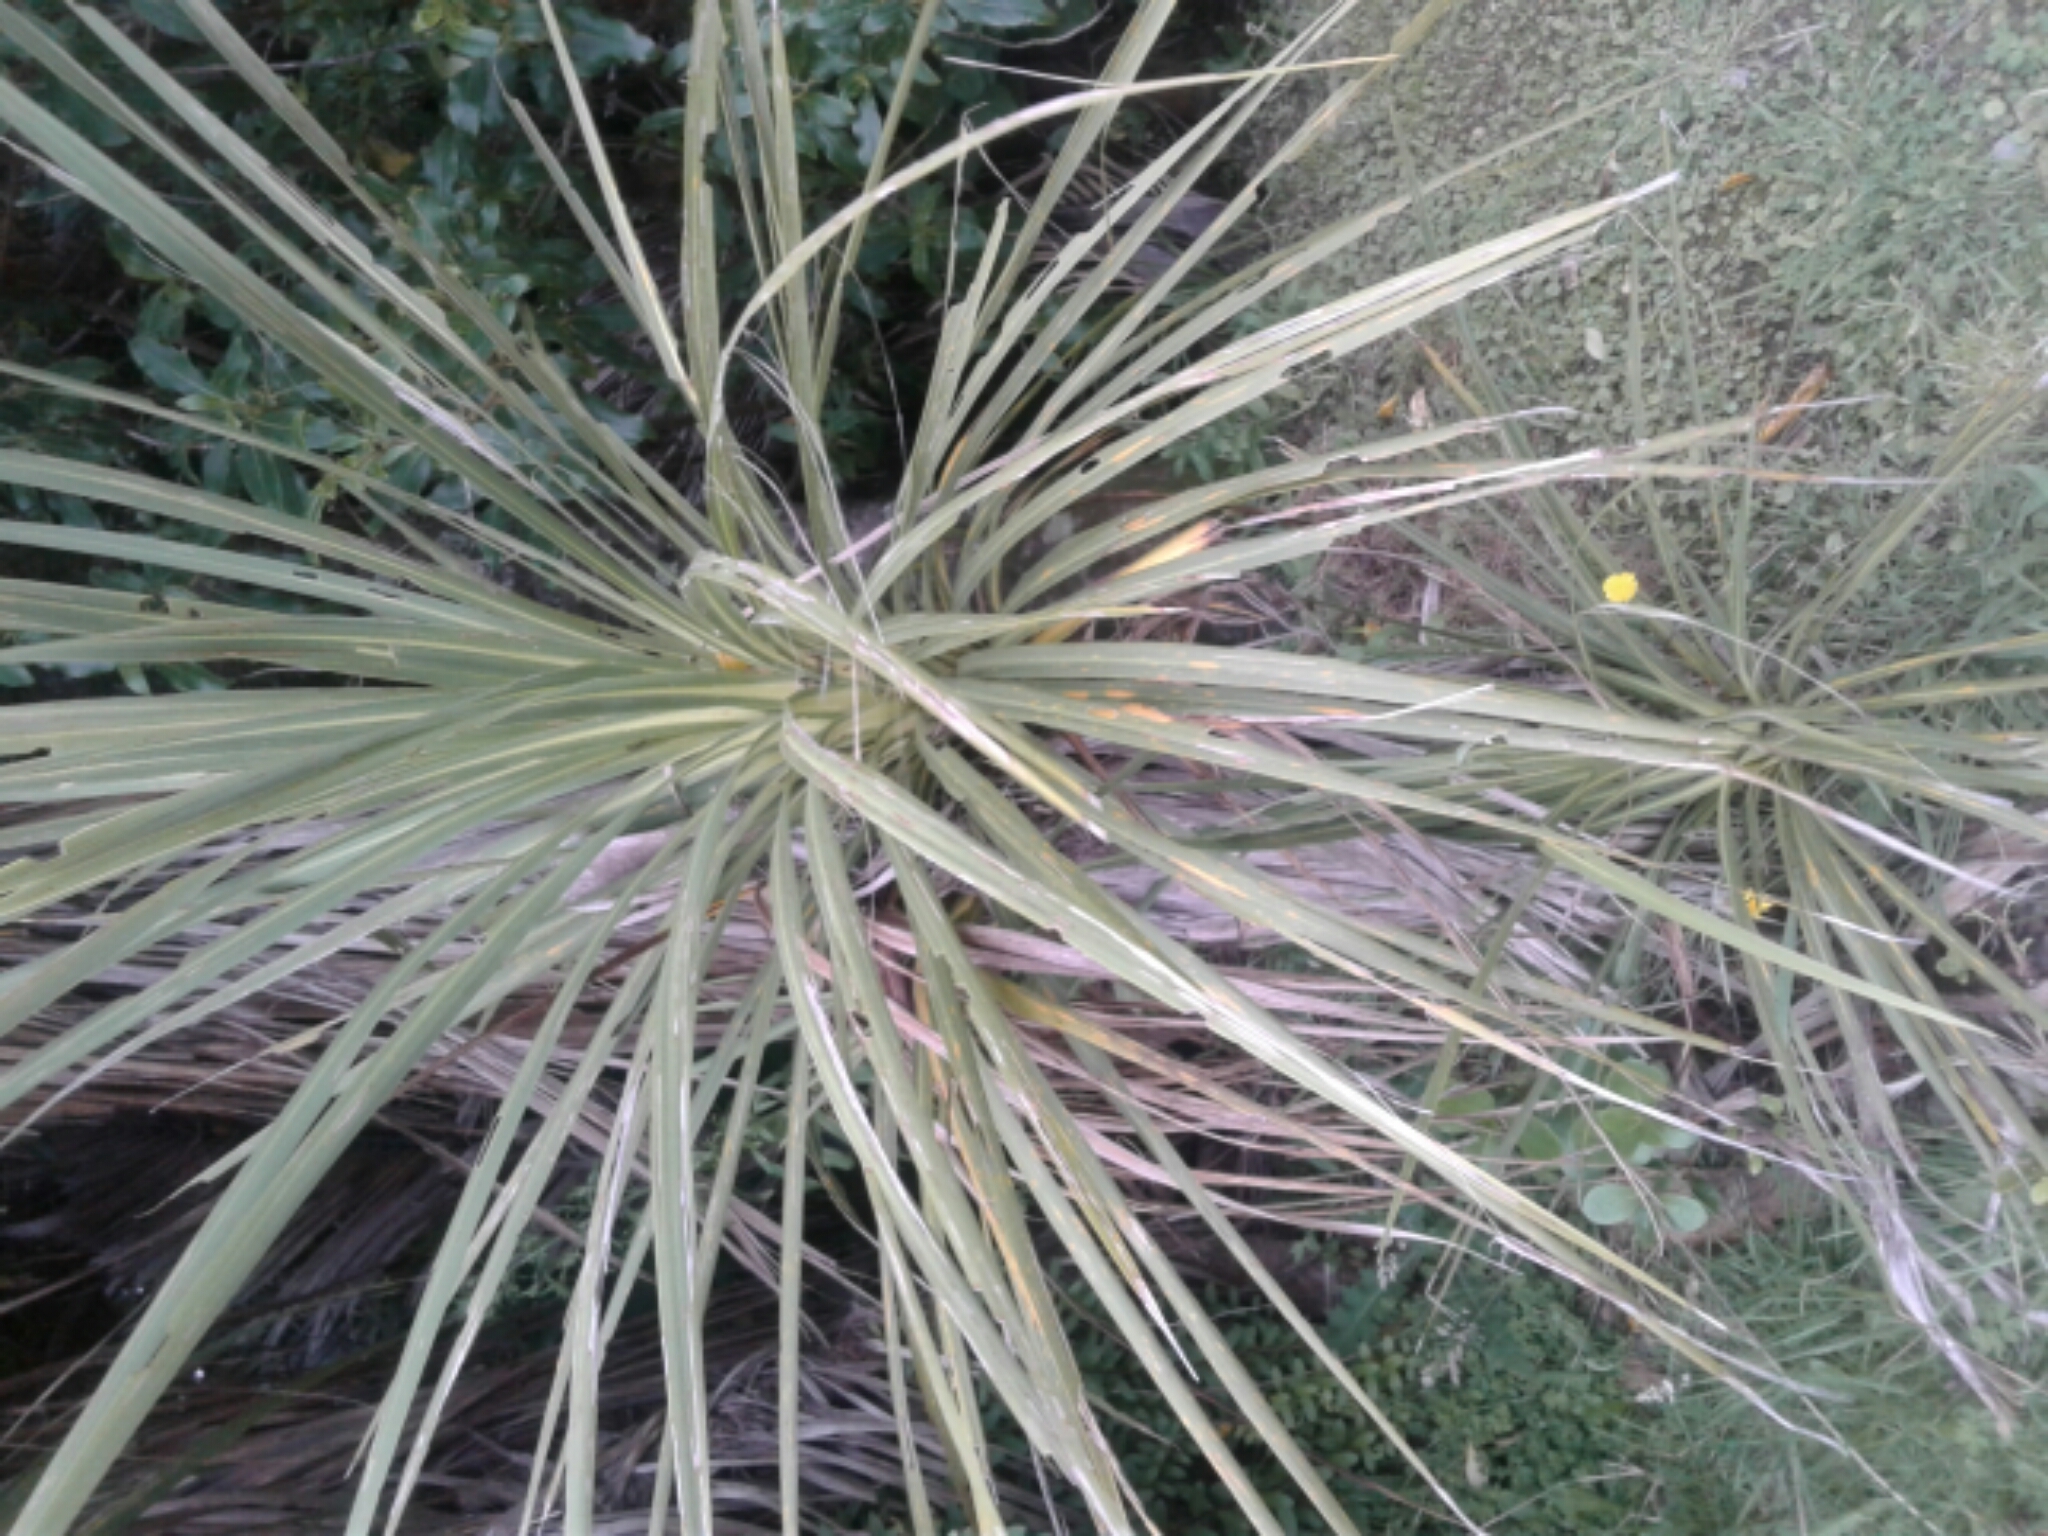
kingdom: Plantae
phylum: Tracheophyta
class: Liliopsida
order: Asparagales
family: Asparagaceae
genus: Cordyline
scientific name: Cordyline australis
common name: Cabbage-palm
